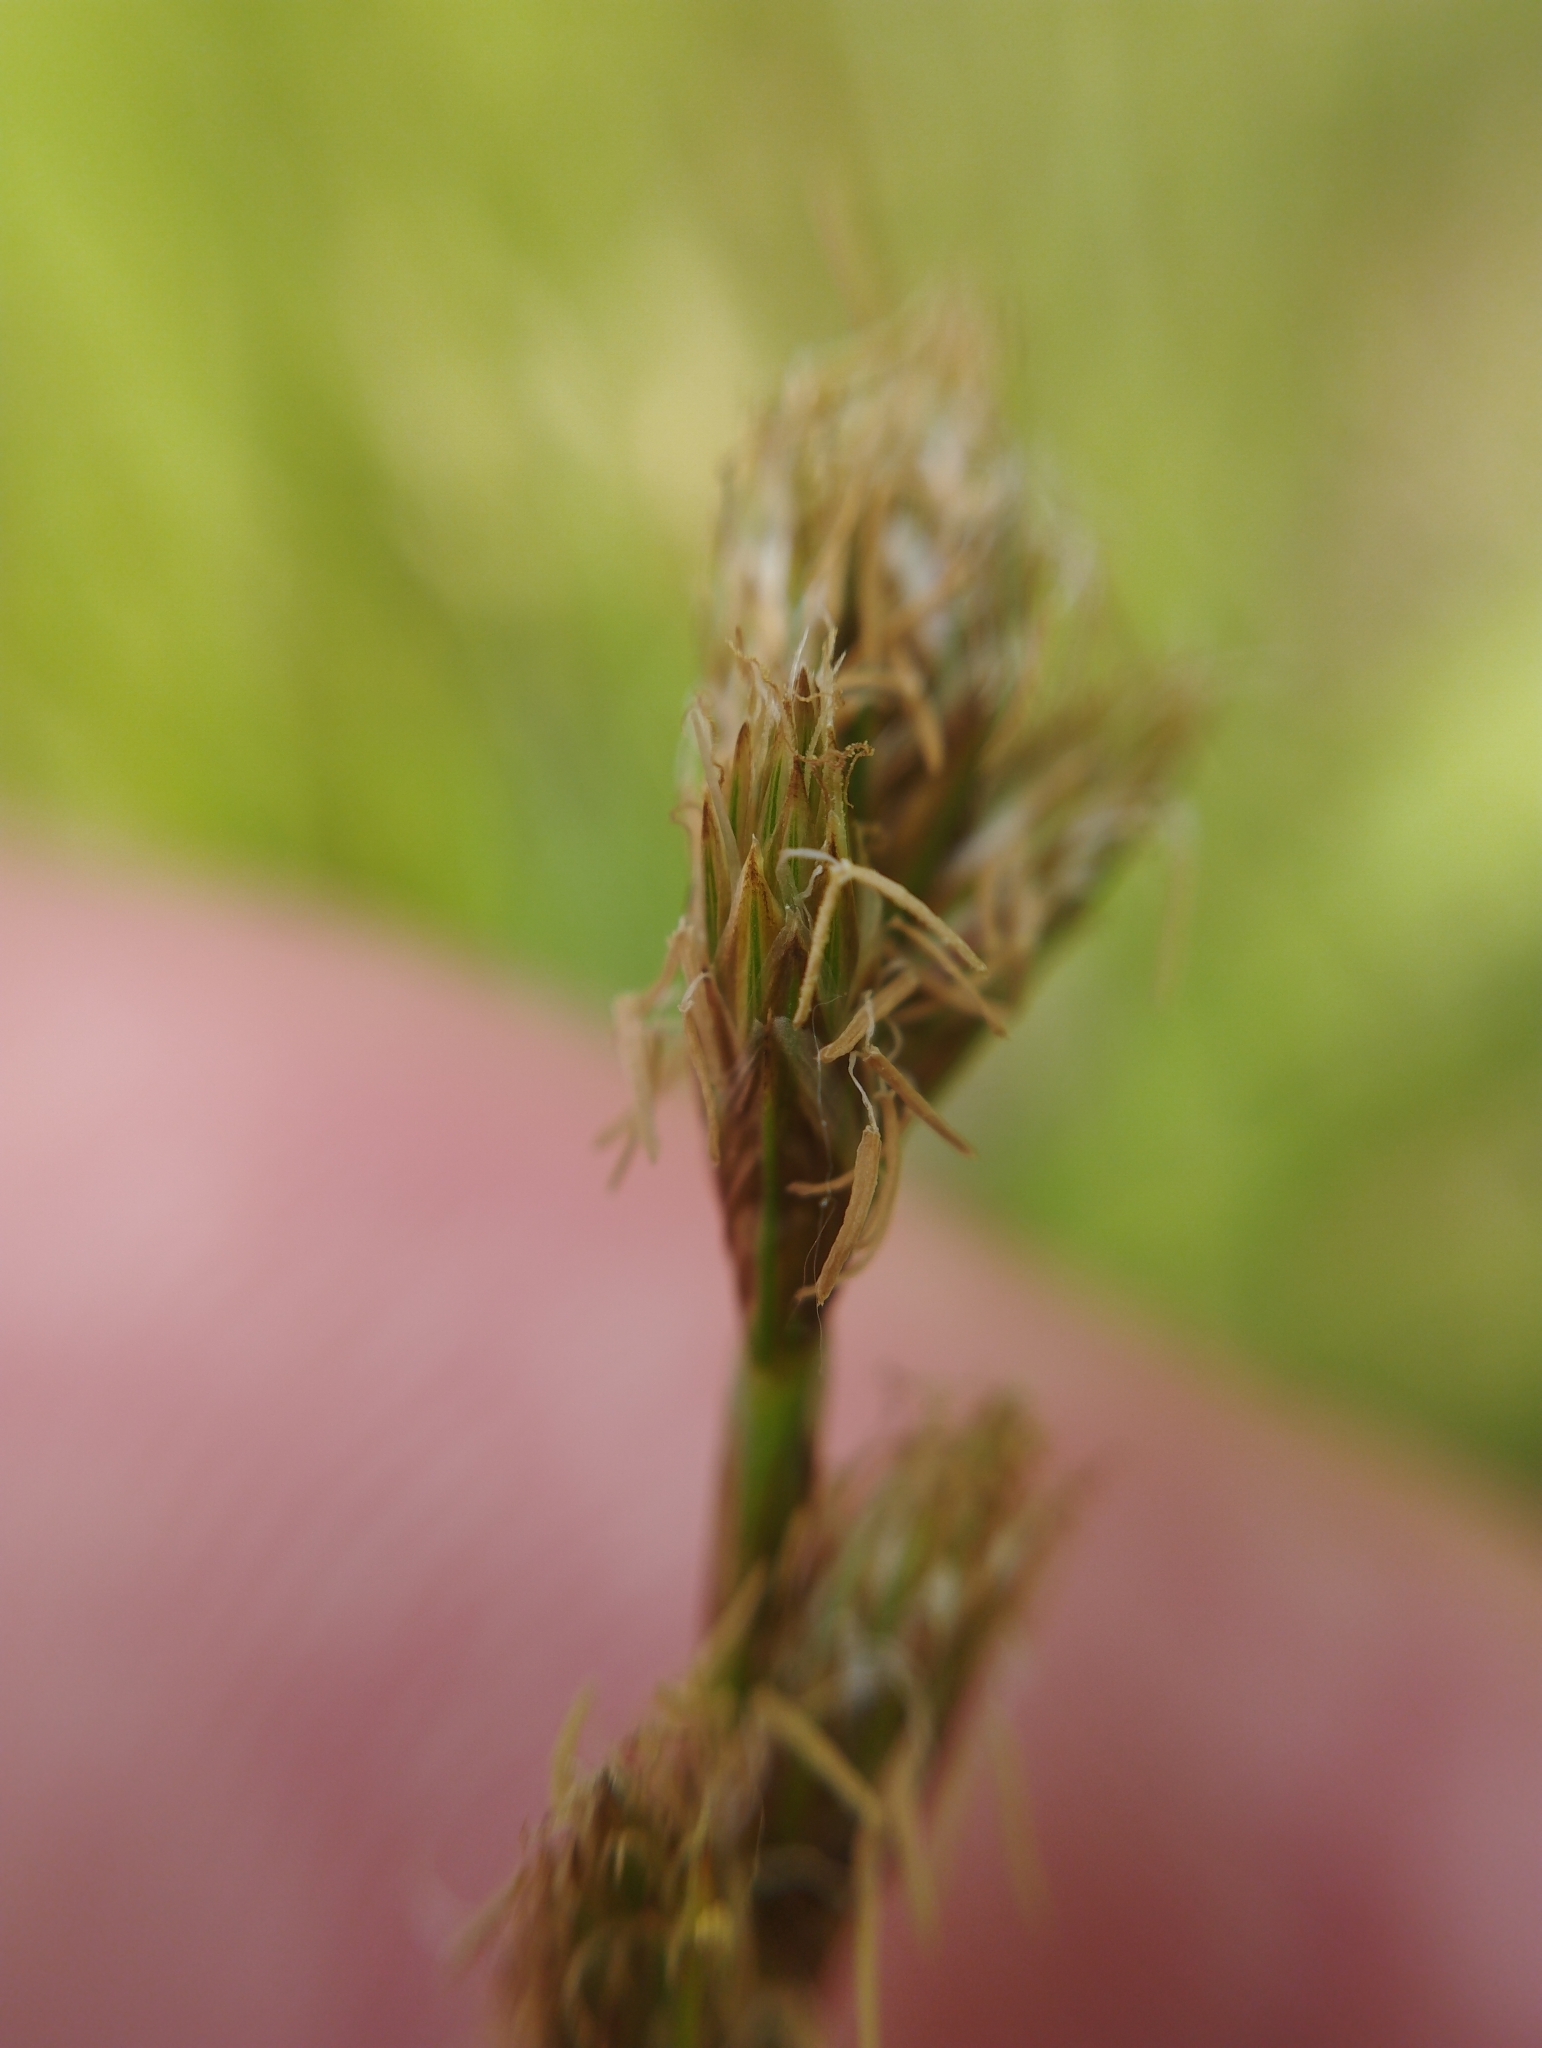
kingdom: Plantae
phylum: Tracheophyta
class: Liliopsida
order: Poales
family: Cyperaceae
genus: Carex
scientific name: Carex leporina
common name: Oval sedge
